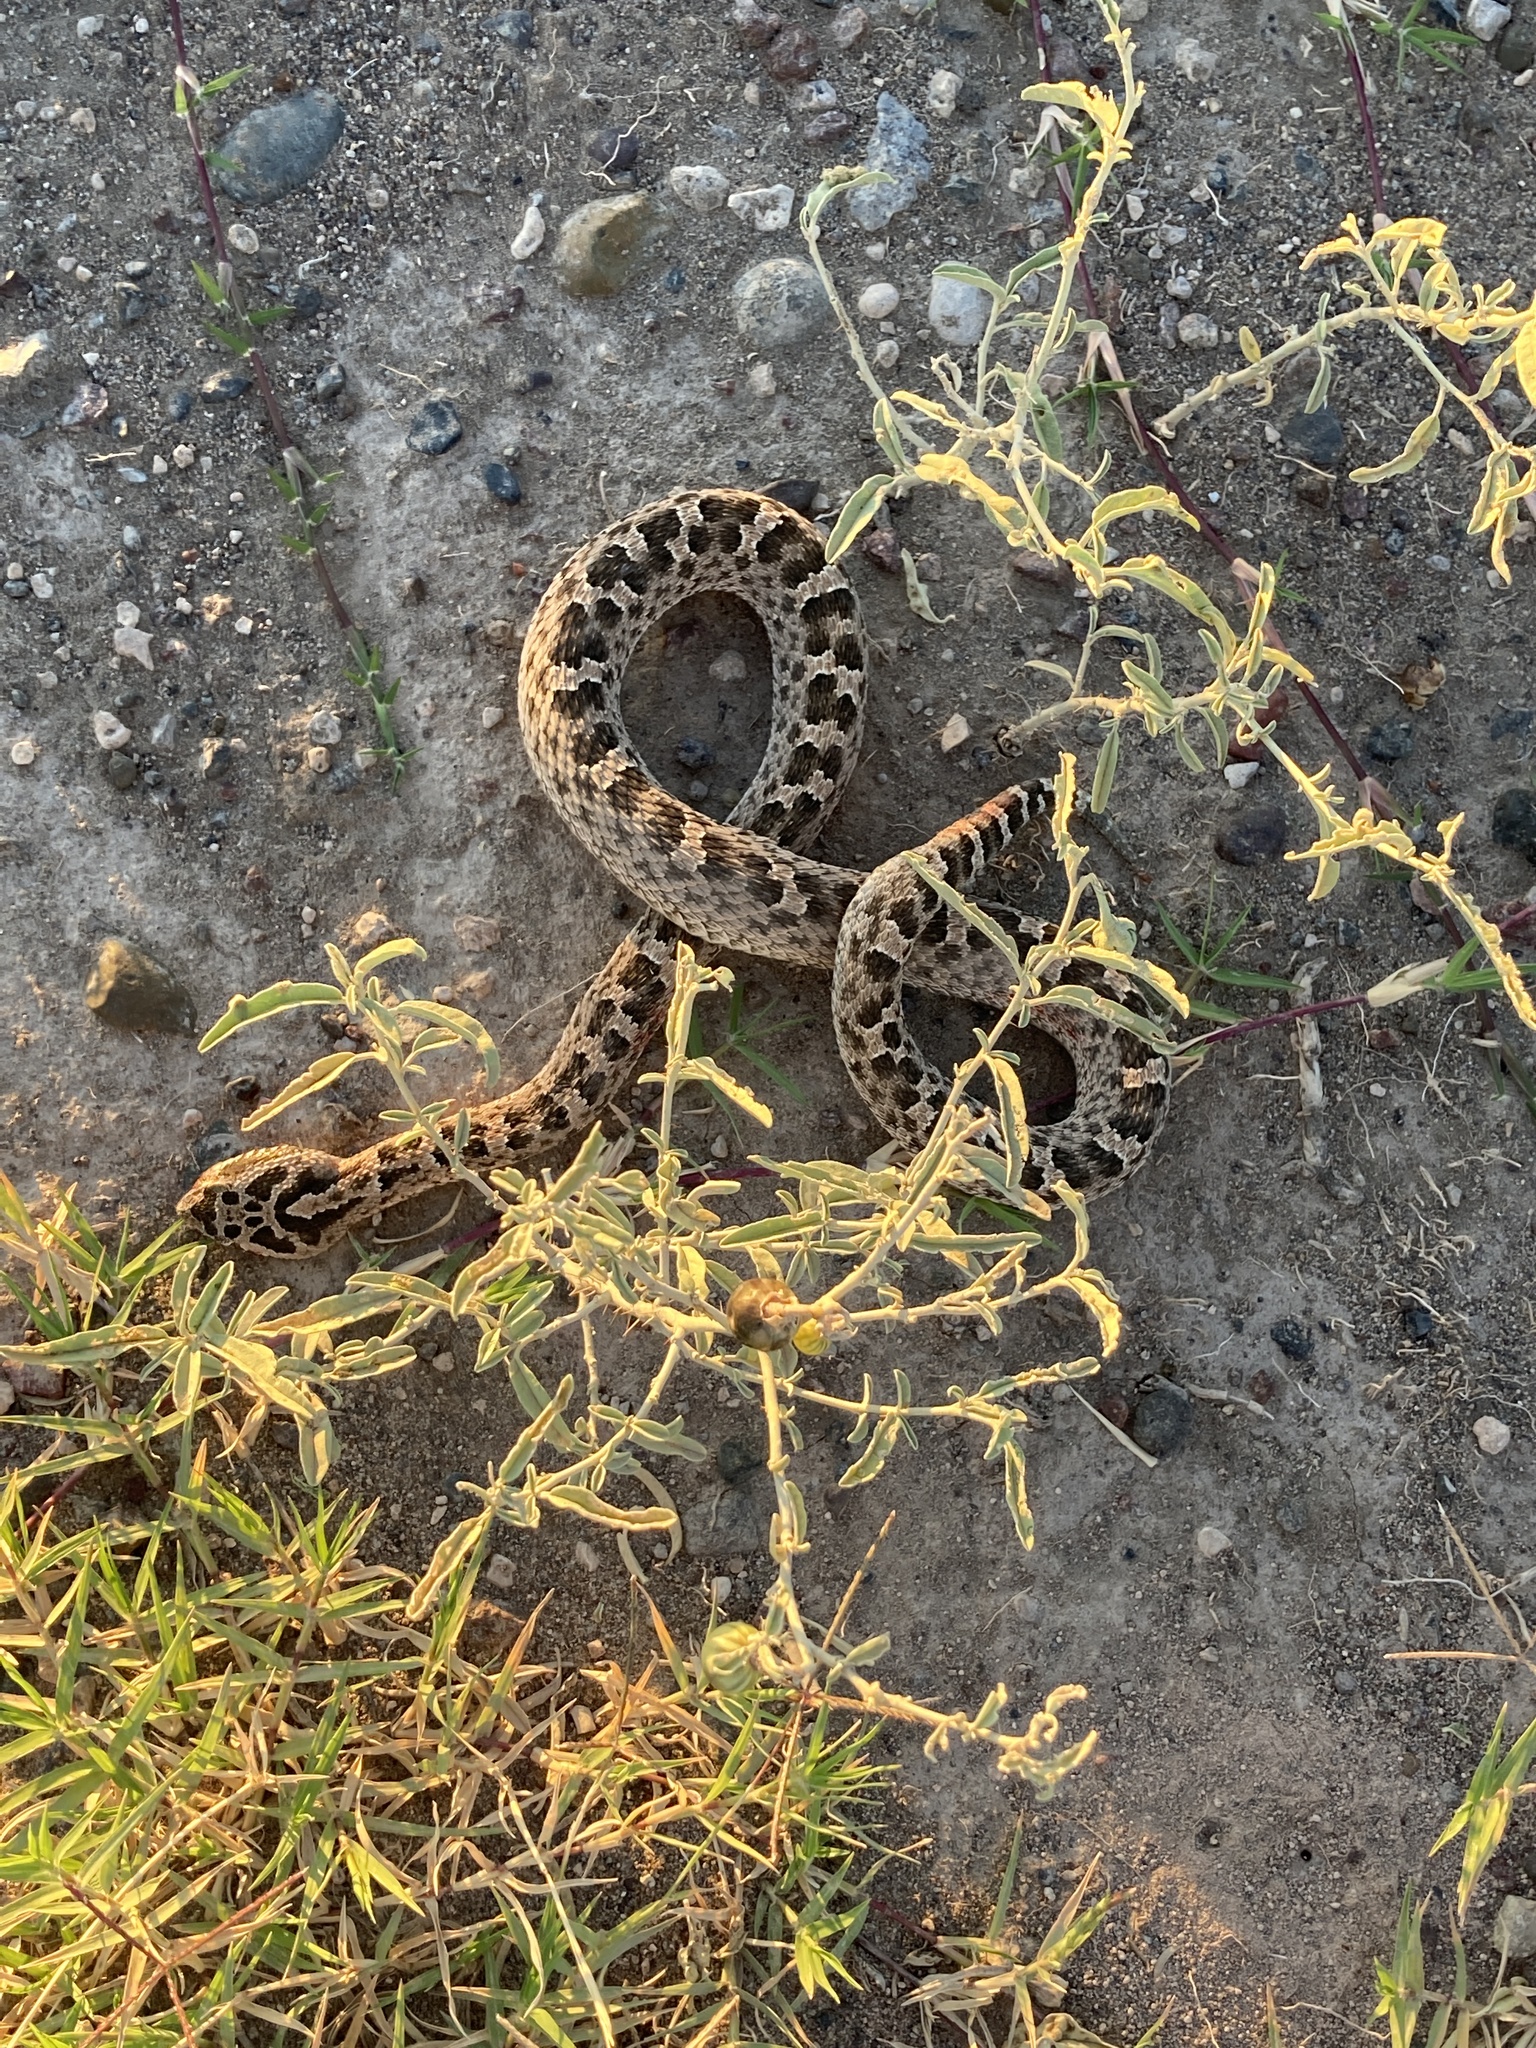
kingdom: Animalia
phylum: Chordata
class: Squamata
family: Viperidae
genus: Bothrops
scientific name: Bothrops ammodytoides
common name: Yararanata
